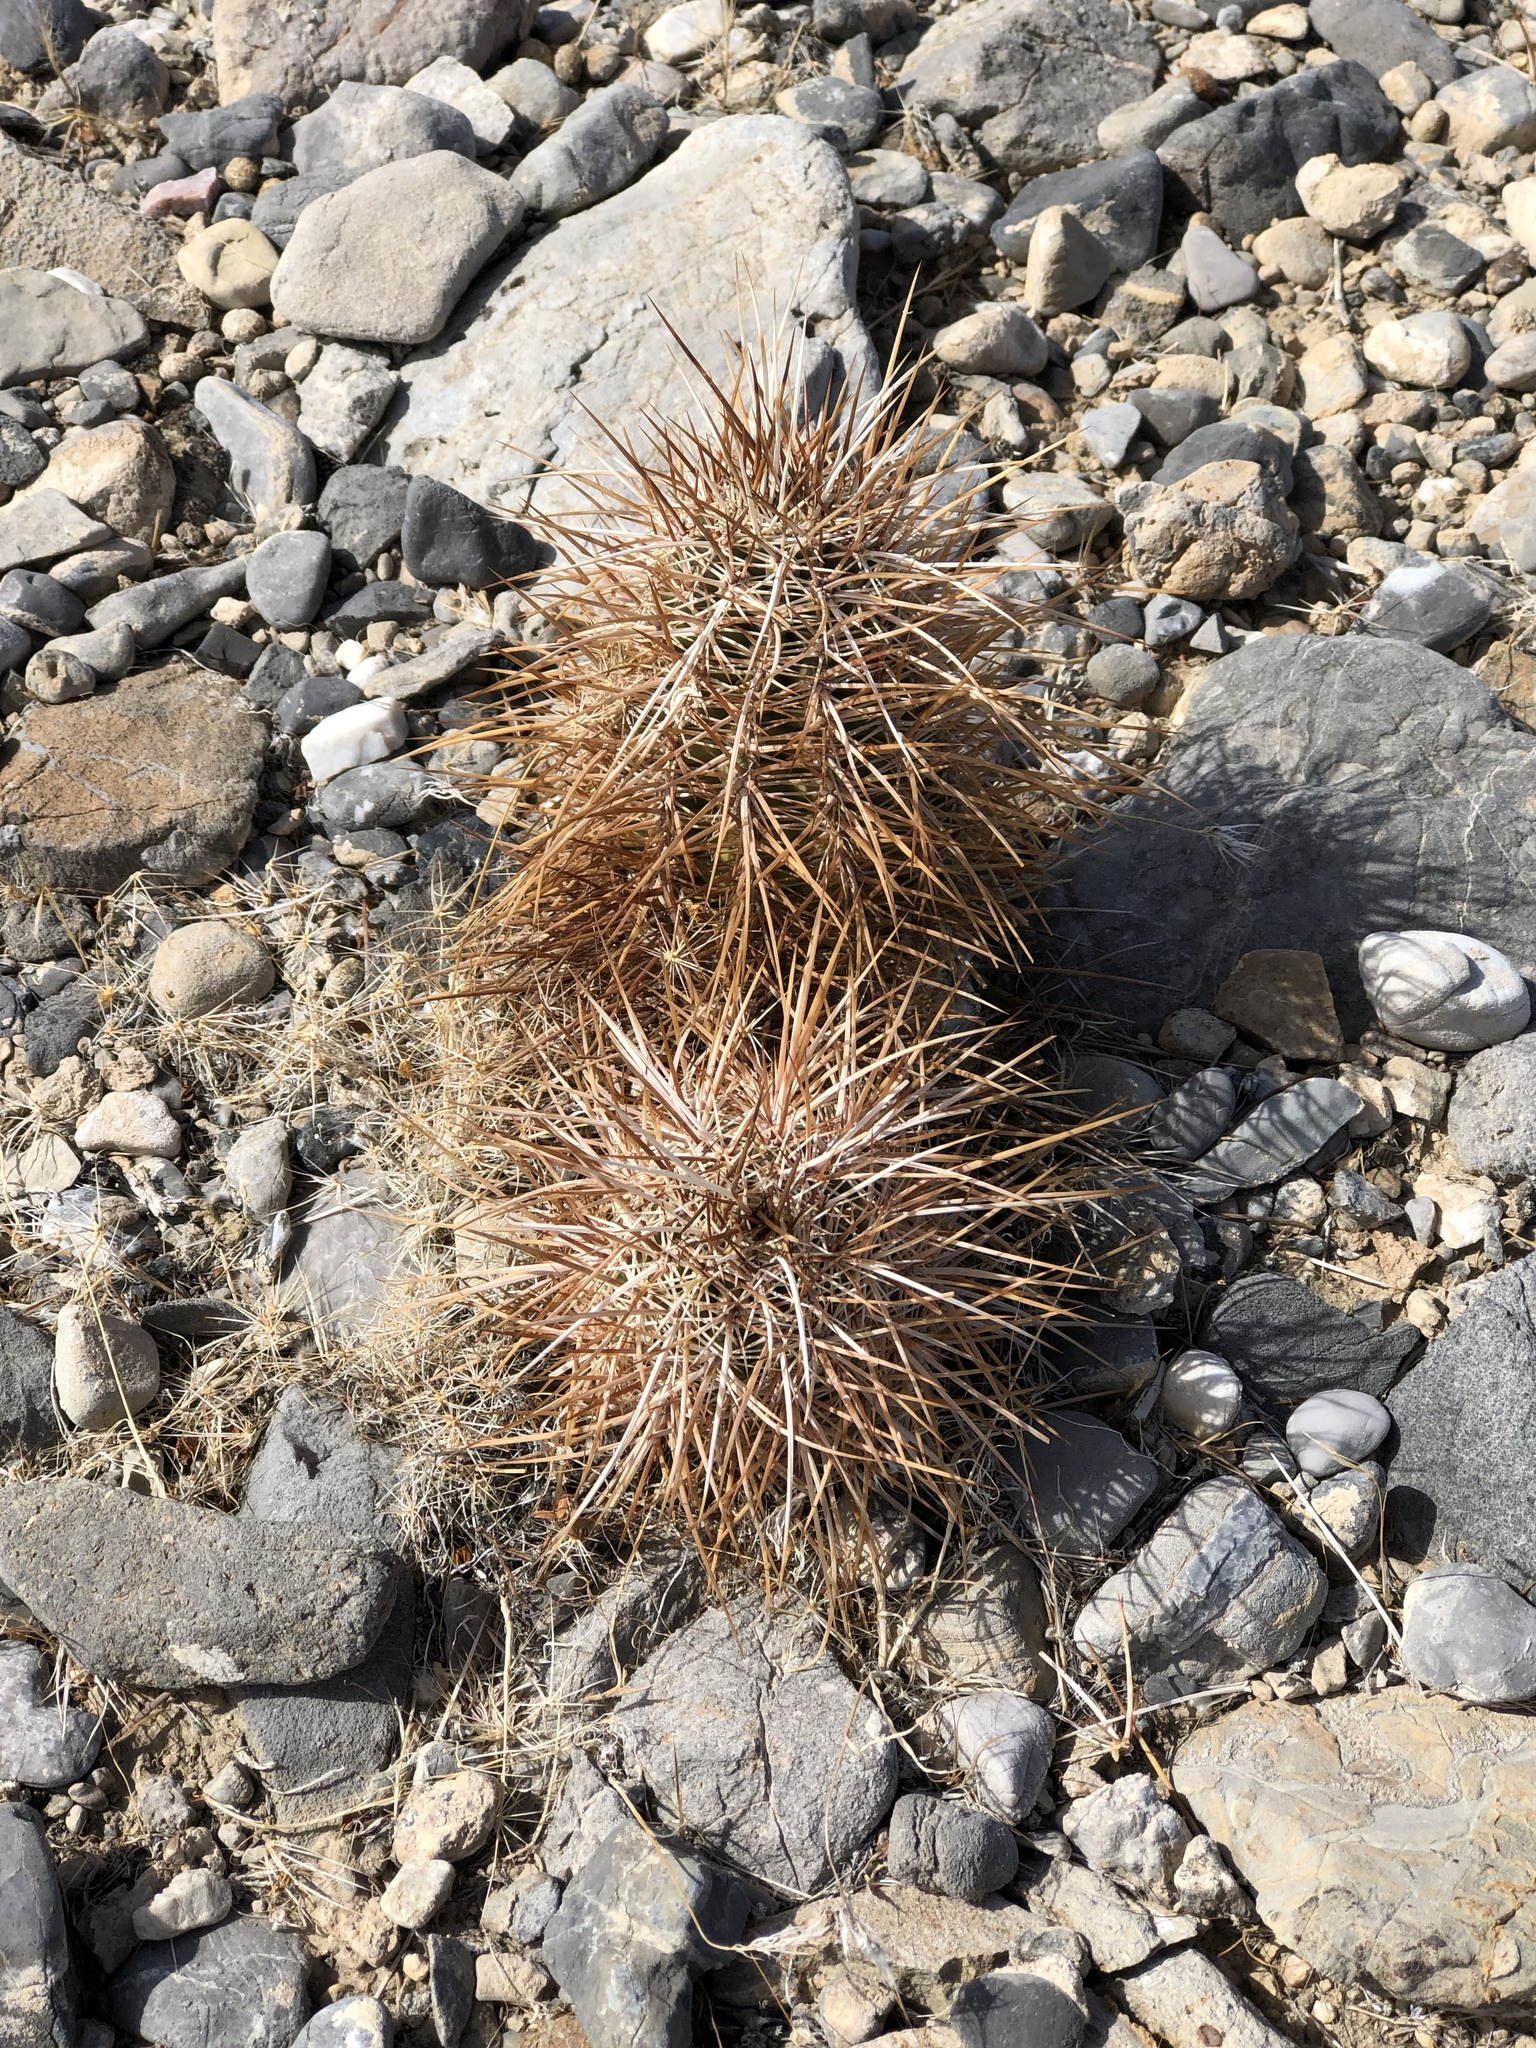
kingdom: Plantae
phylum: Tracheophyta
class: Magnoliopsida
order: Caryophyllales
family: Cactaceae
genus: Echinocereus
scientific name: Echinocereus engelmannii
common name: Engelmann's hedgehog cactus
